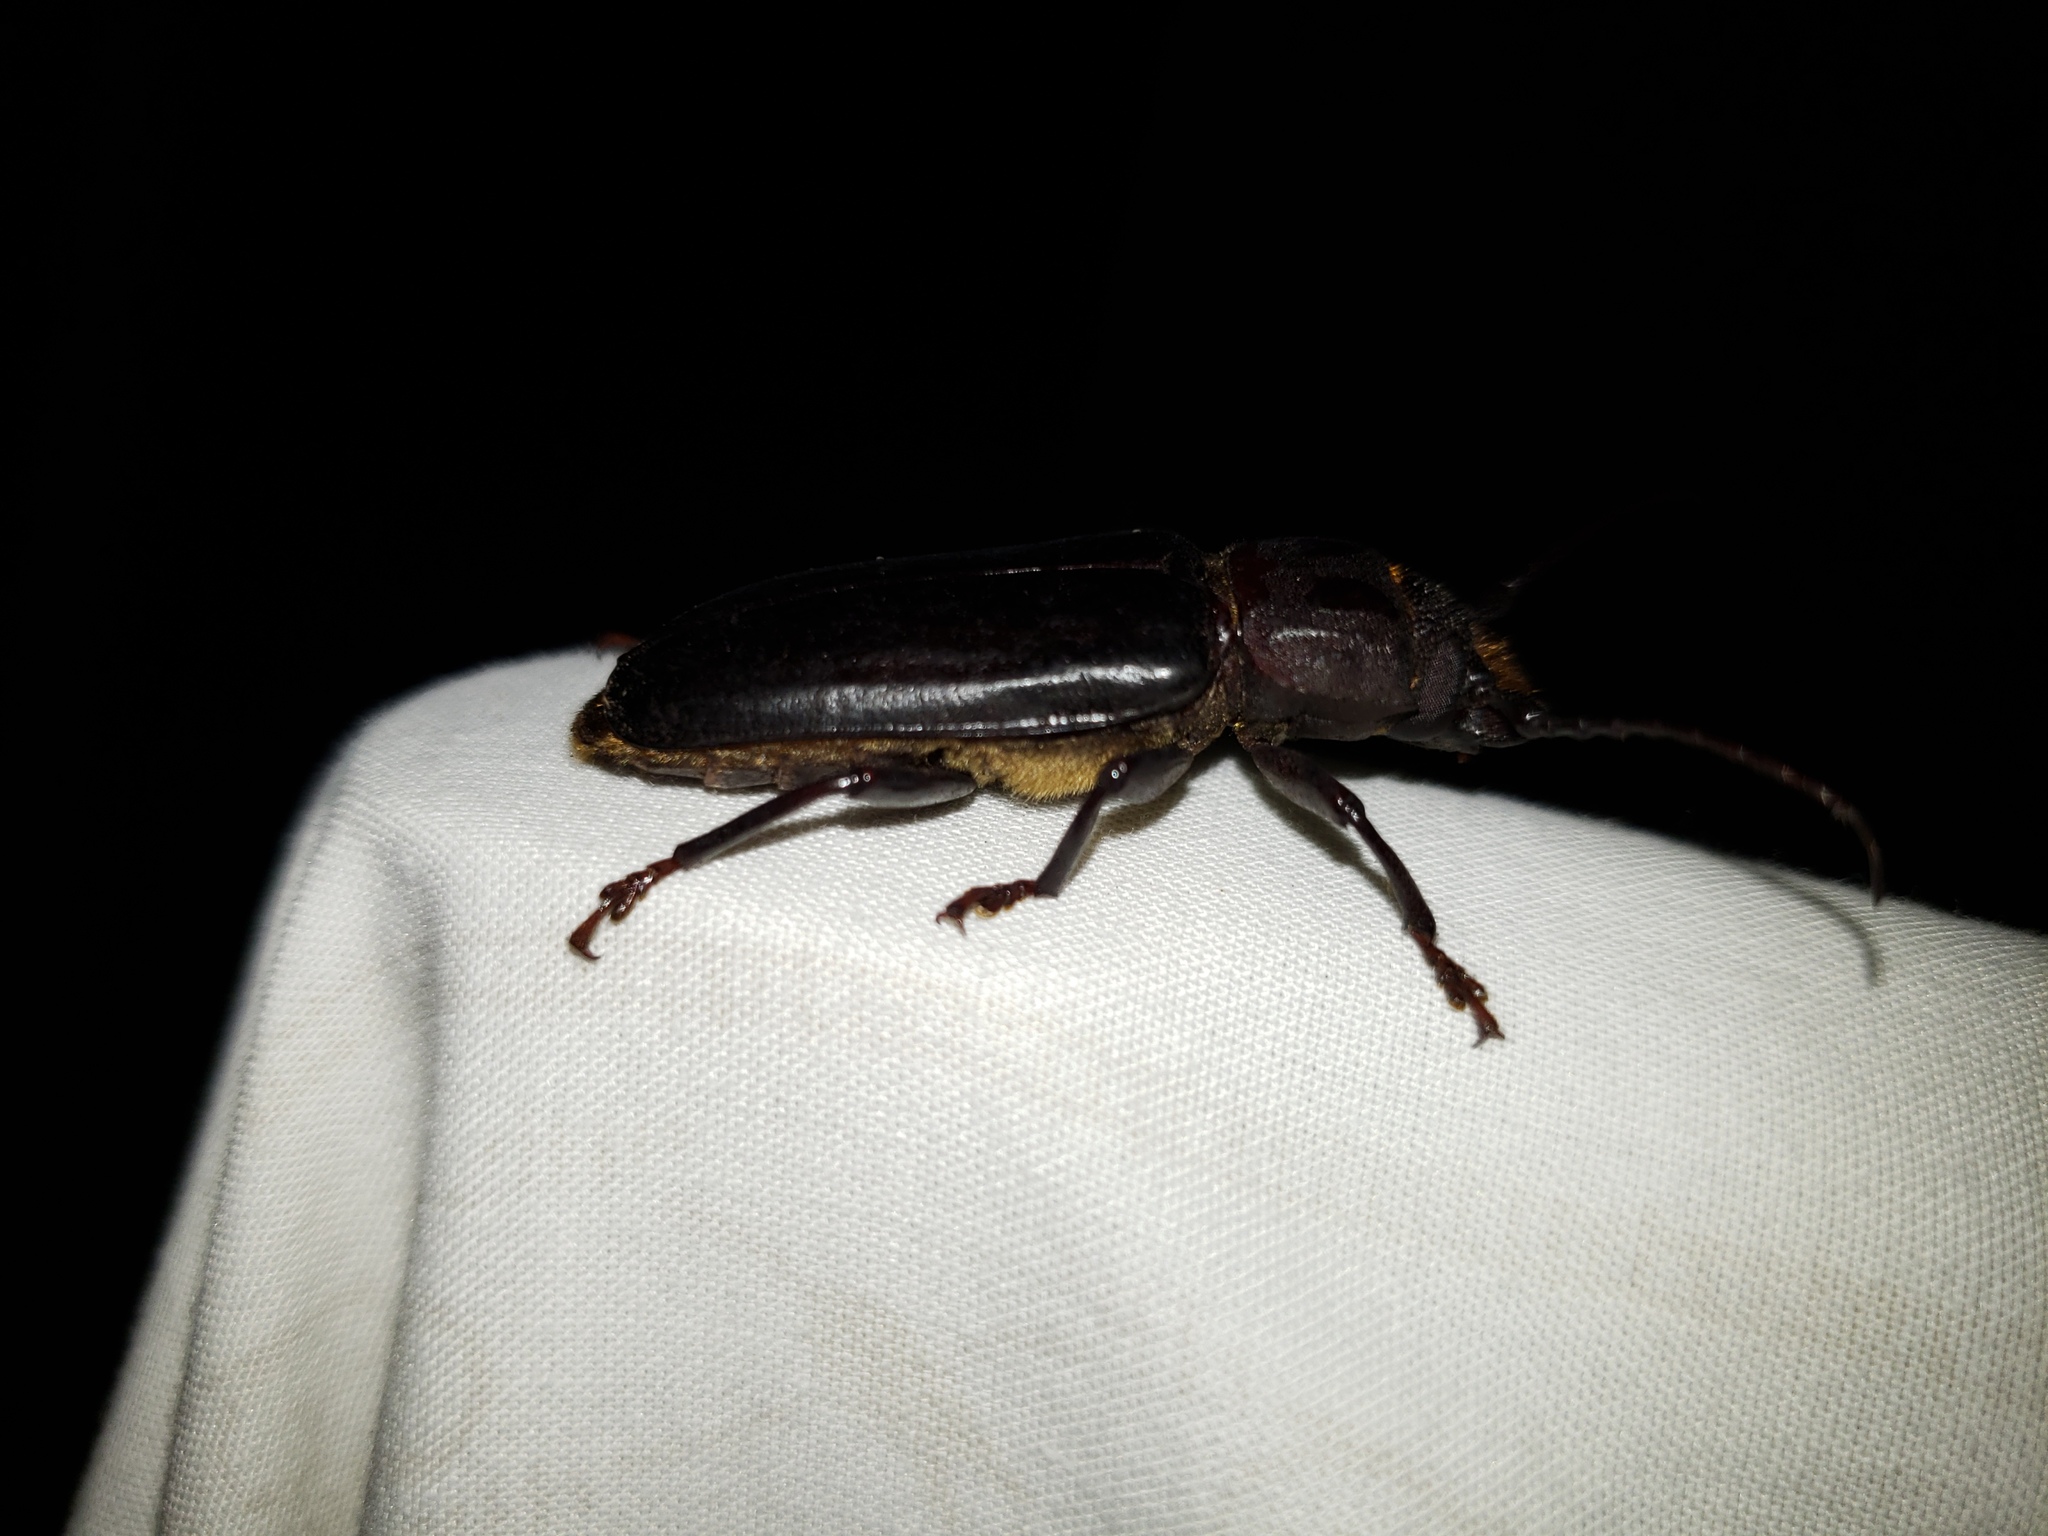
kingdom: Animalia
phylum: Arthropoda
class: Insecta
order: Coleoptera
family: Cerambycidae
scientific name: Cerambycidae
